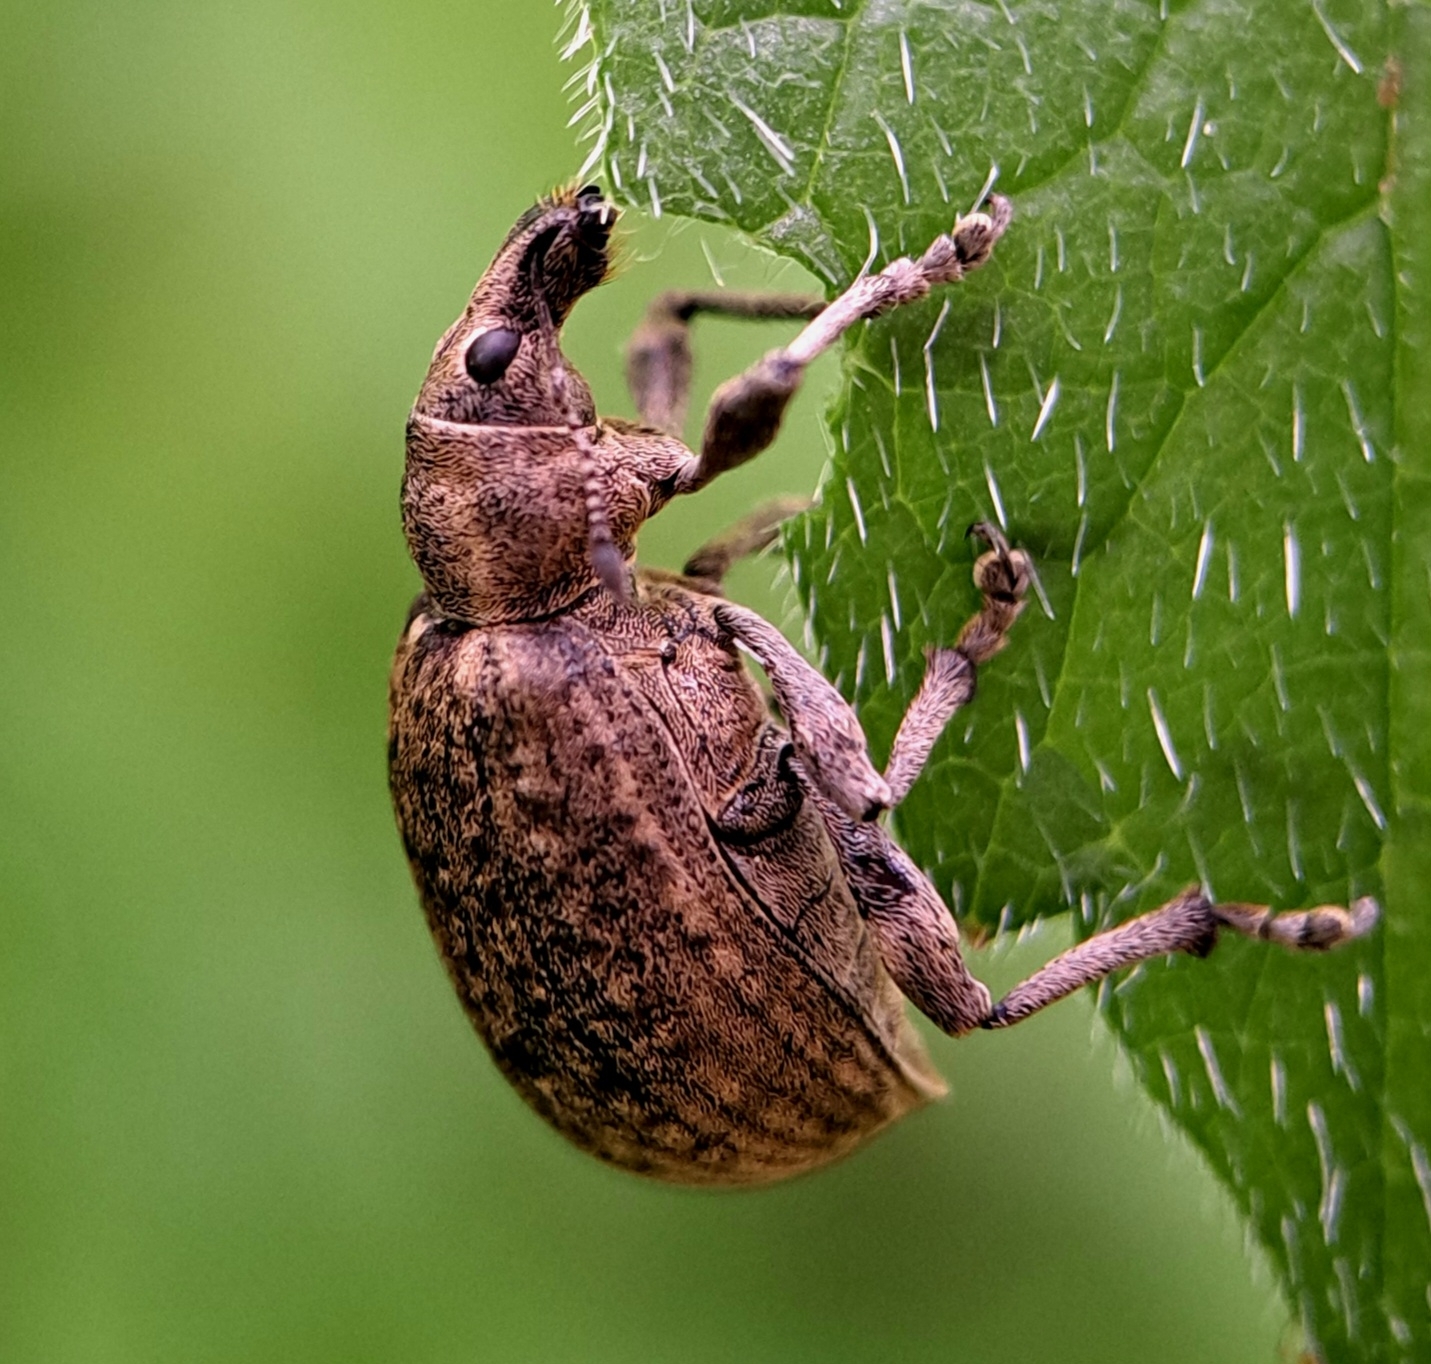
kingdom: Animalia
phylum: Arthropoda
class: Insecta
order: Coleoptera
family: Curculionidae
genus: Liophloeus
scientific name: Liophloeus tessulatus
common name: Weevil
